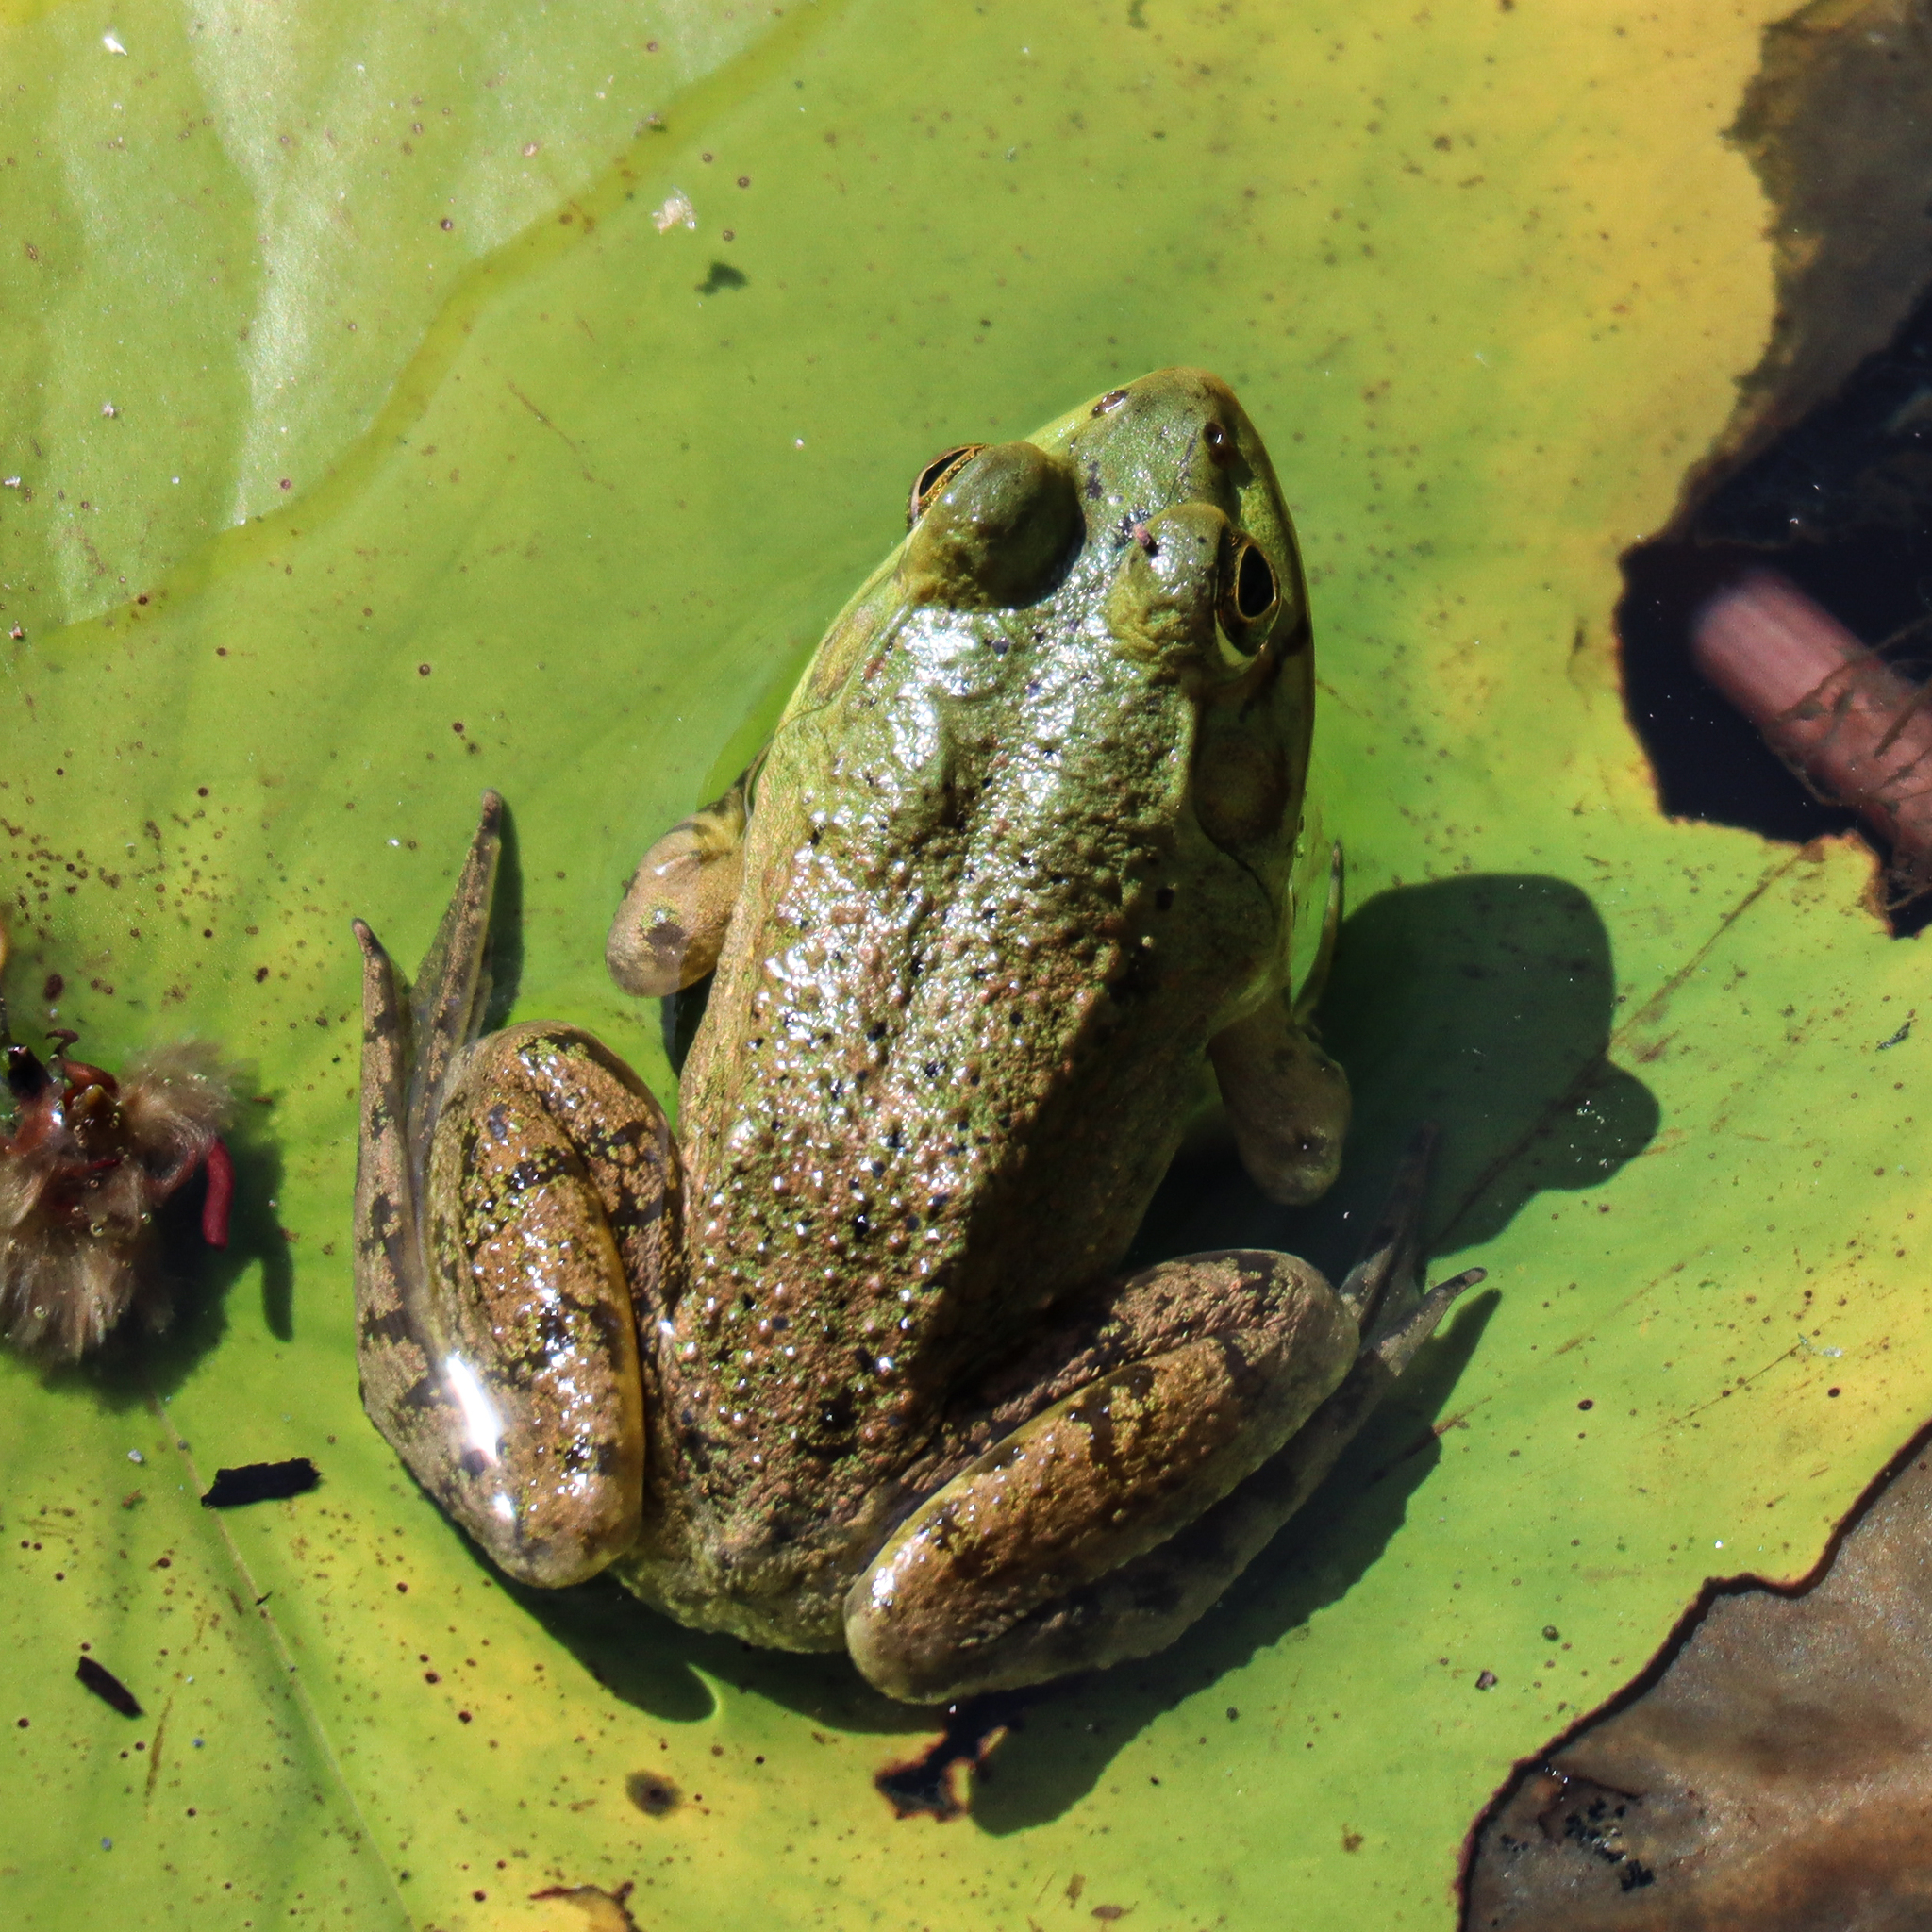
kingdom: Animalia
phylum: Chordata
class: Amphibia
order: Anura
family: Ranidae
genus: Lithobates
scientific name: Lithobates catesbeianus
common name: American bullfrog
